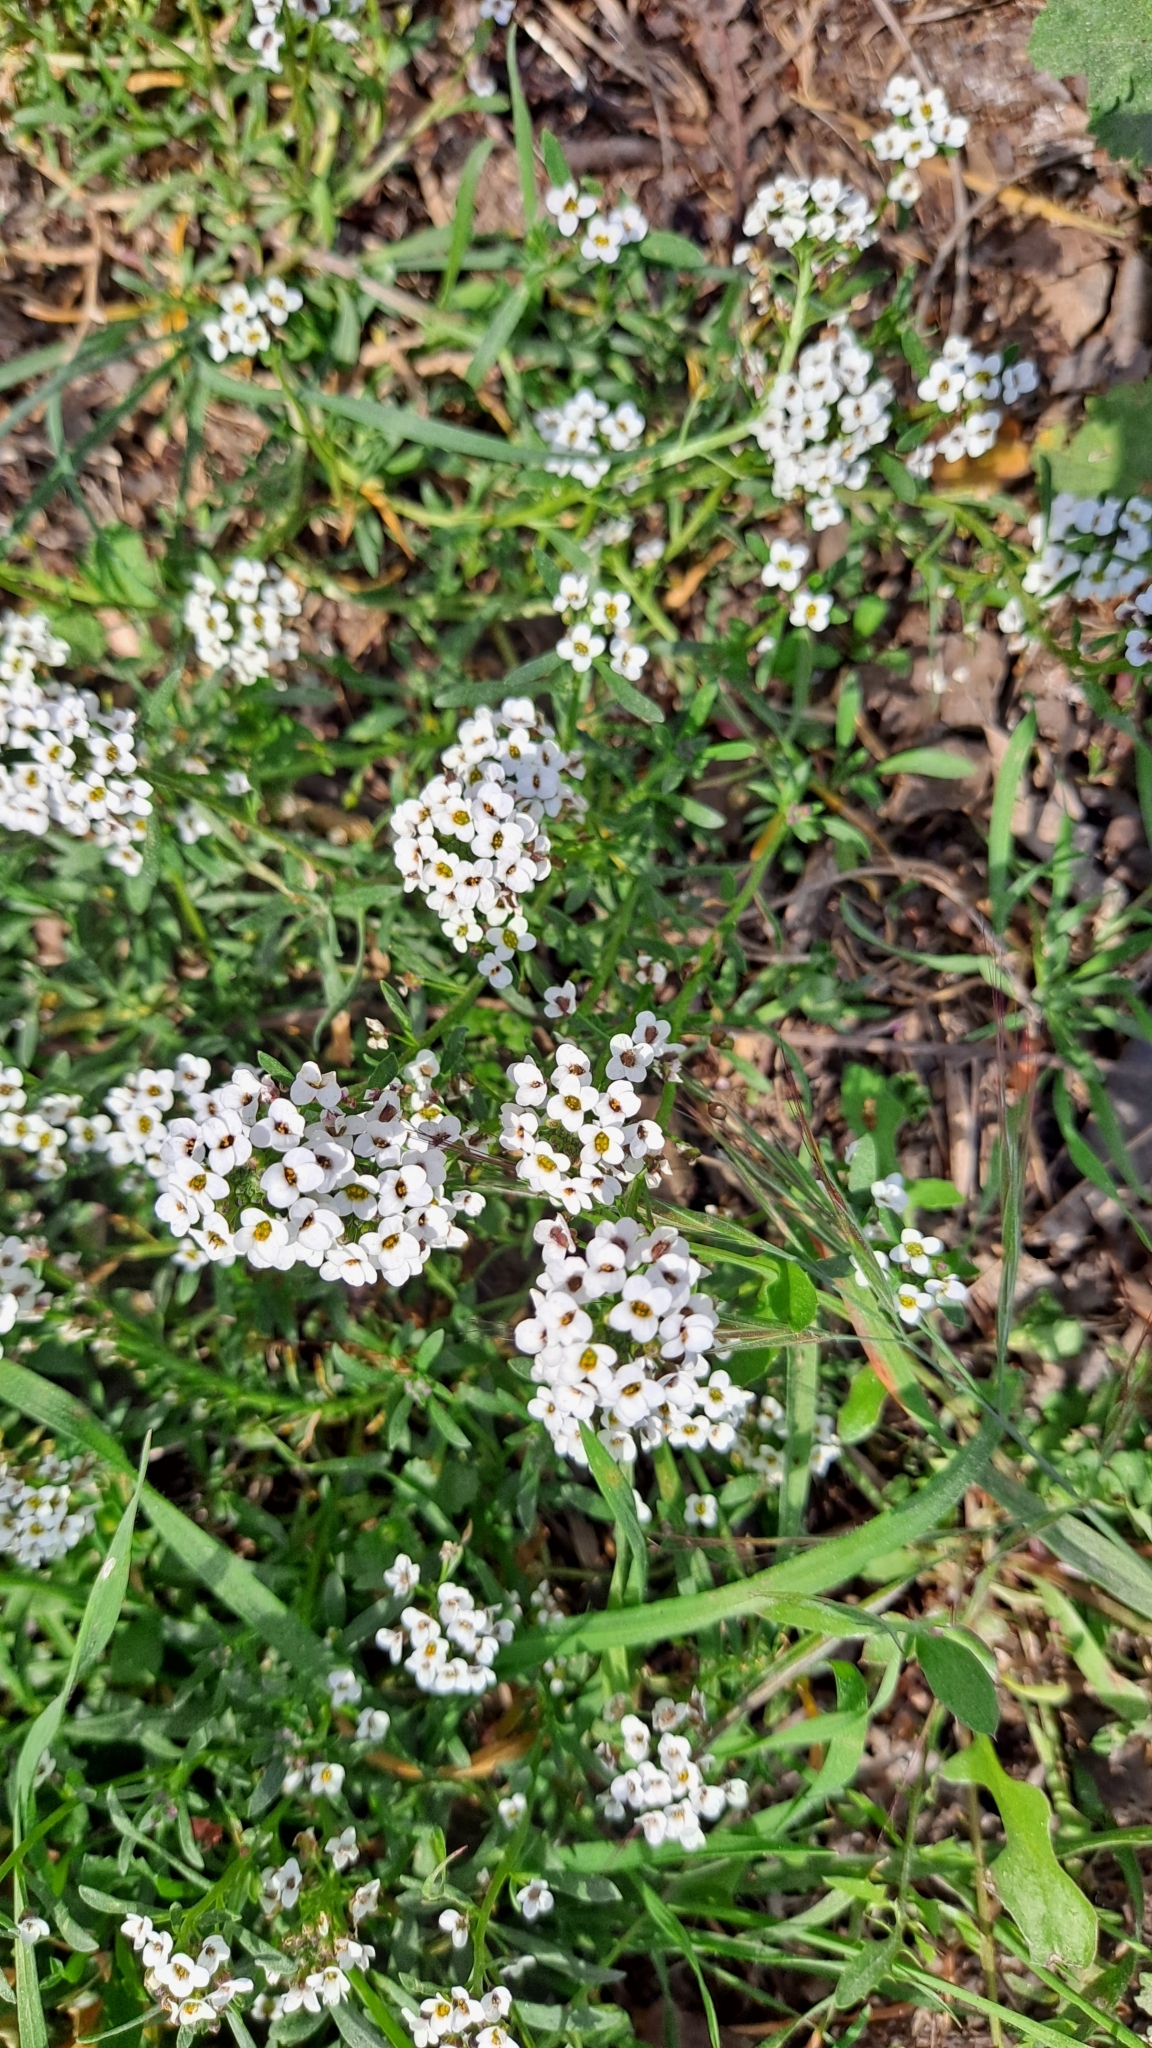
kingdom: Plantae
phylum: Tracheophyta
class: Magnoliopsida
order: Brassicales
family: Brassicaceae
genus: Lobularia
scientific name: Lobularia maritima
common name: Sweet alison
